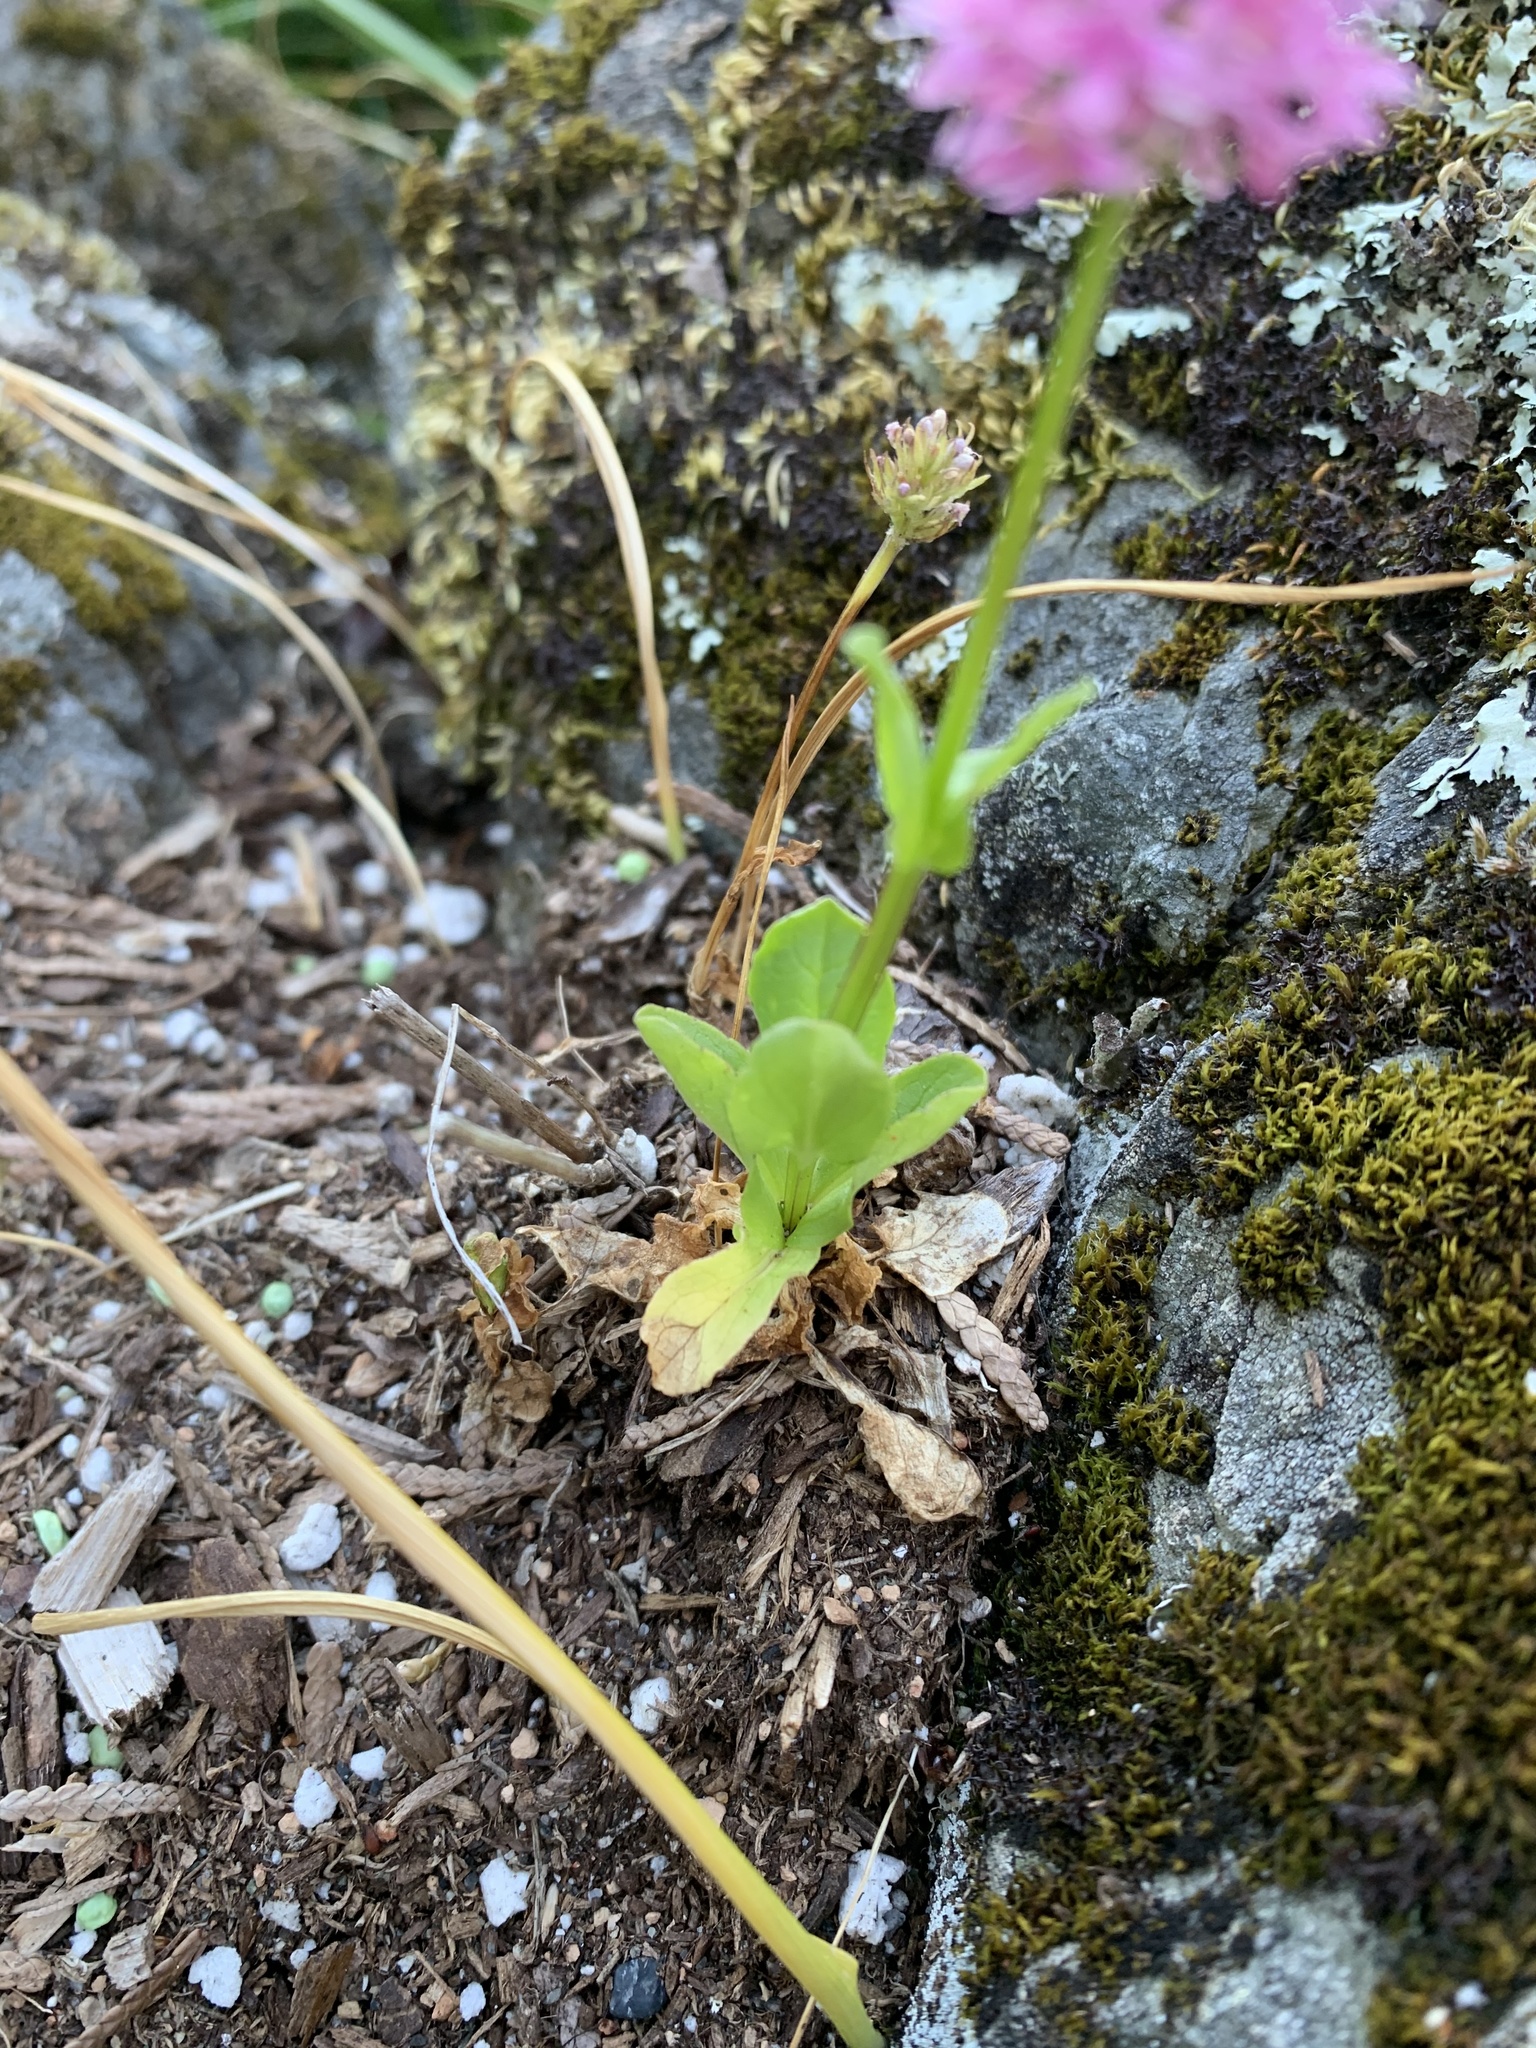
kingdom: Plantae
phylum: Tracheophyta
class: Magnoliopsida
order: Dipsacales
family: Caprifoliaceae
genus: Plectritis
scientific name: Plectritis congesta
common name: Pink plectritis
